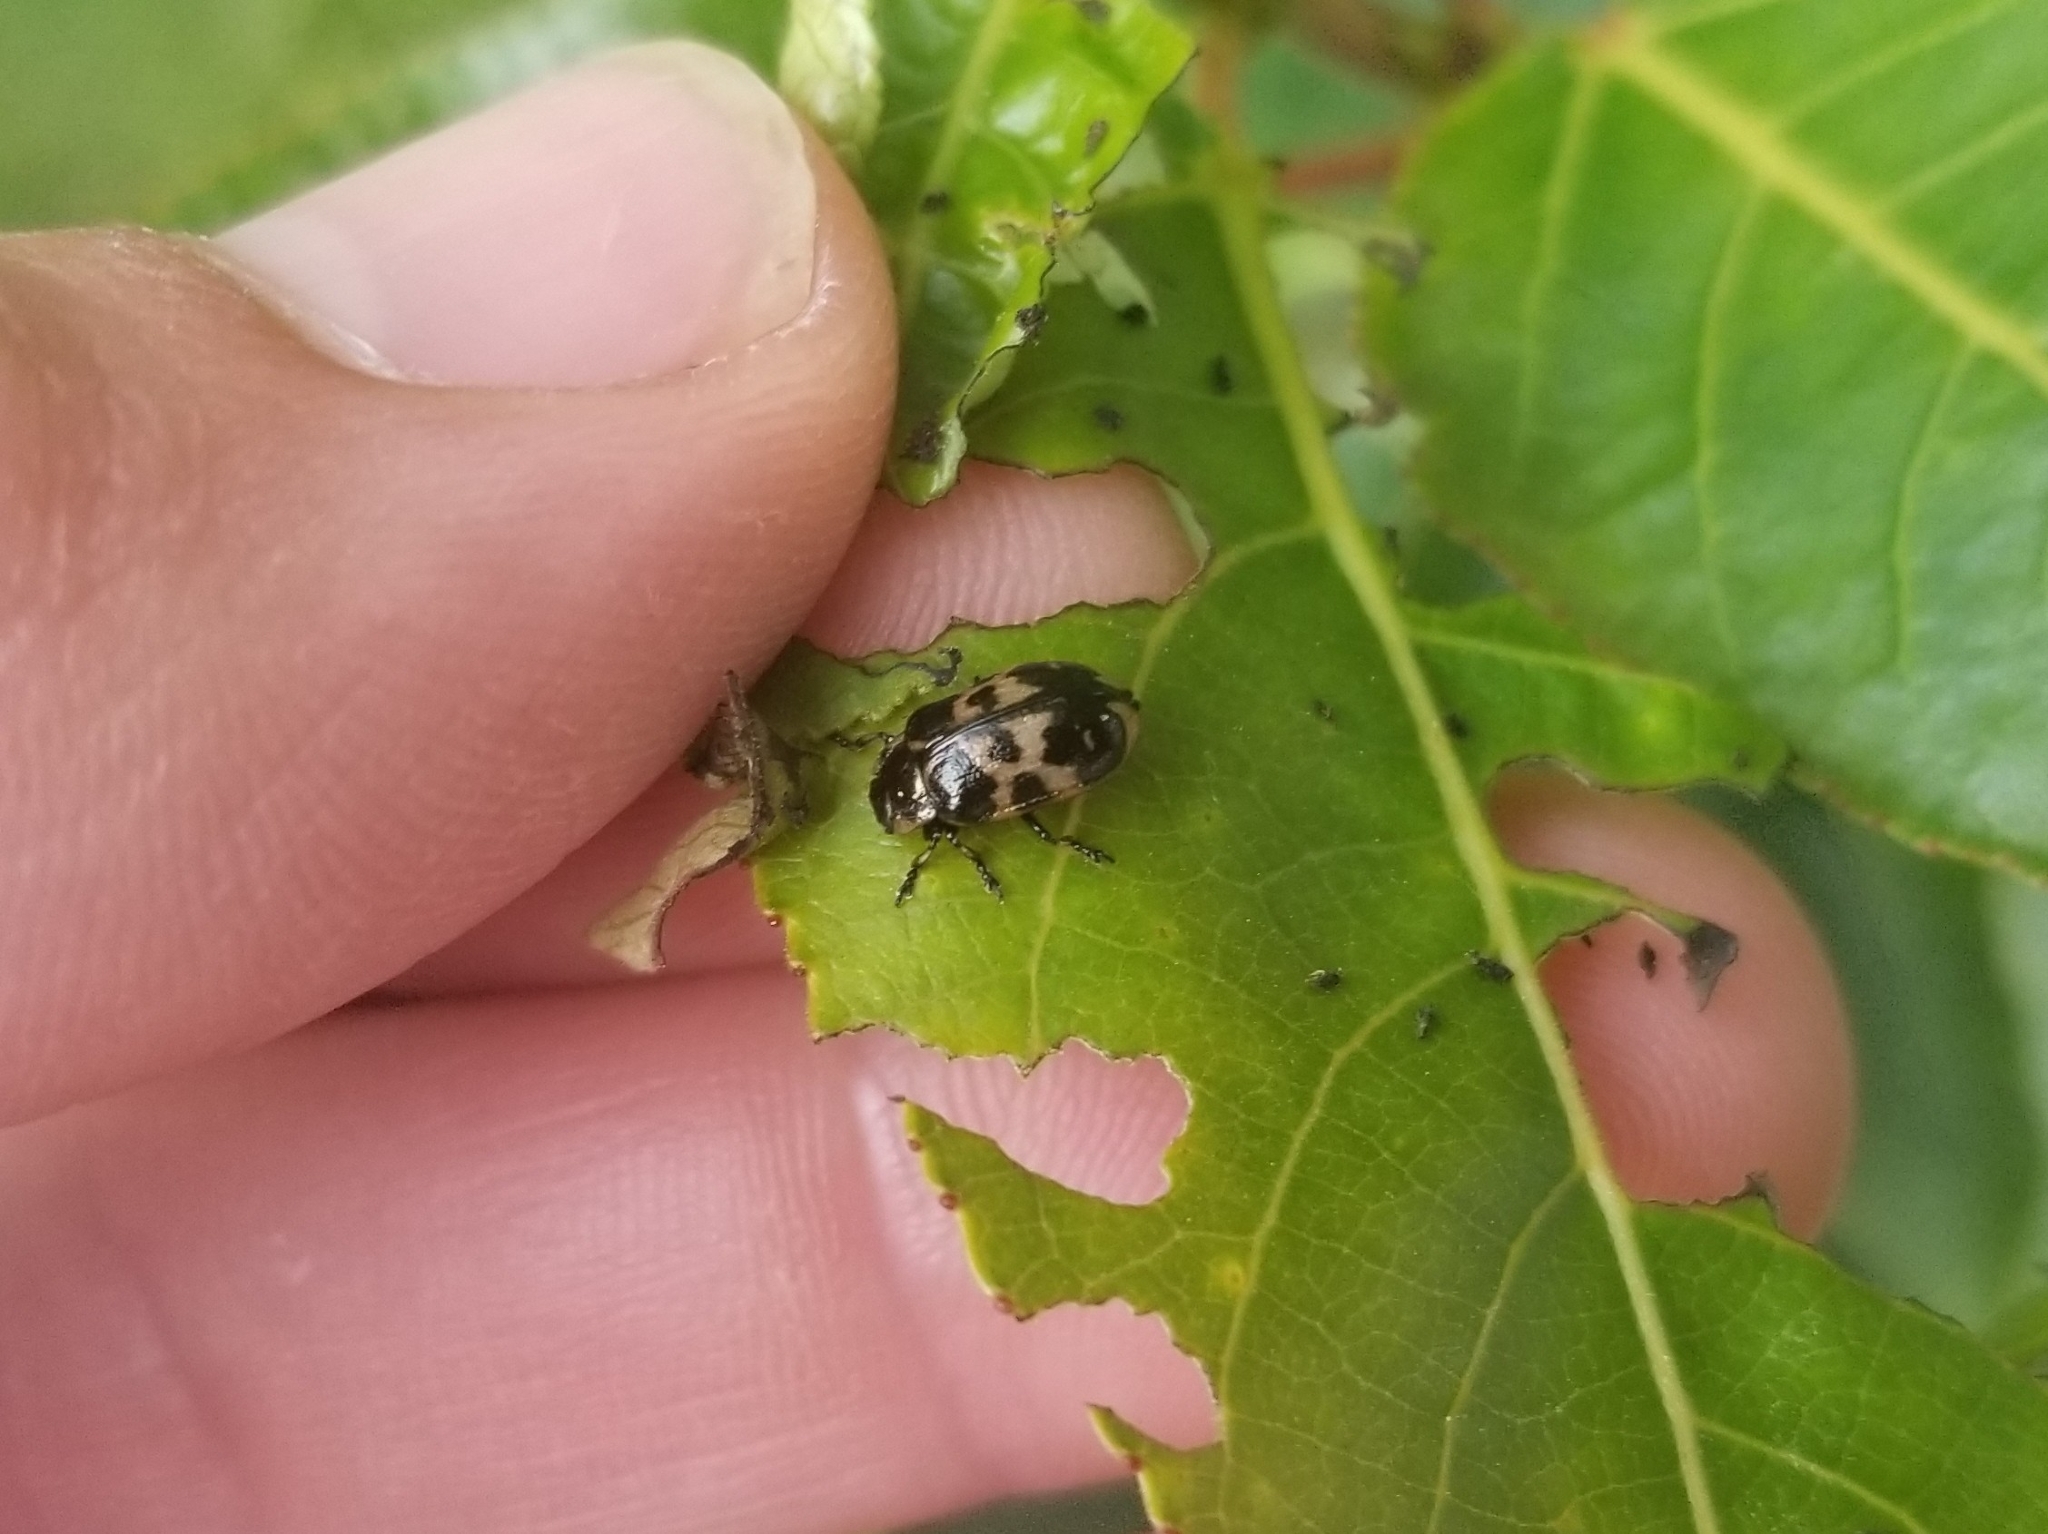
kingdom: Animalia
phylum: Arthropoda
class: Insecta
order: Coleoptera
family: Chrysomelidae
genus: Chrysomela
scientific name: Chrysomela
